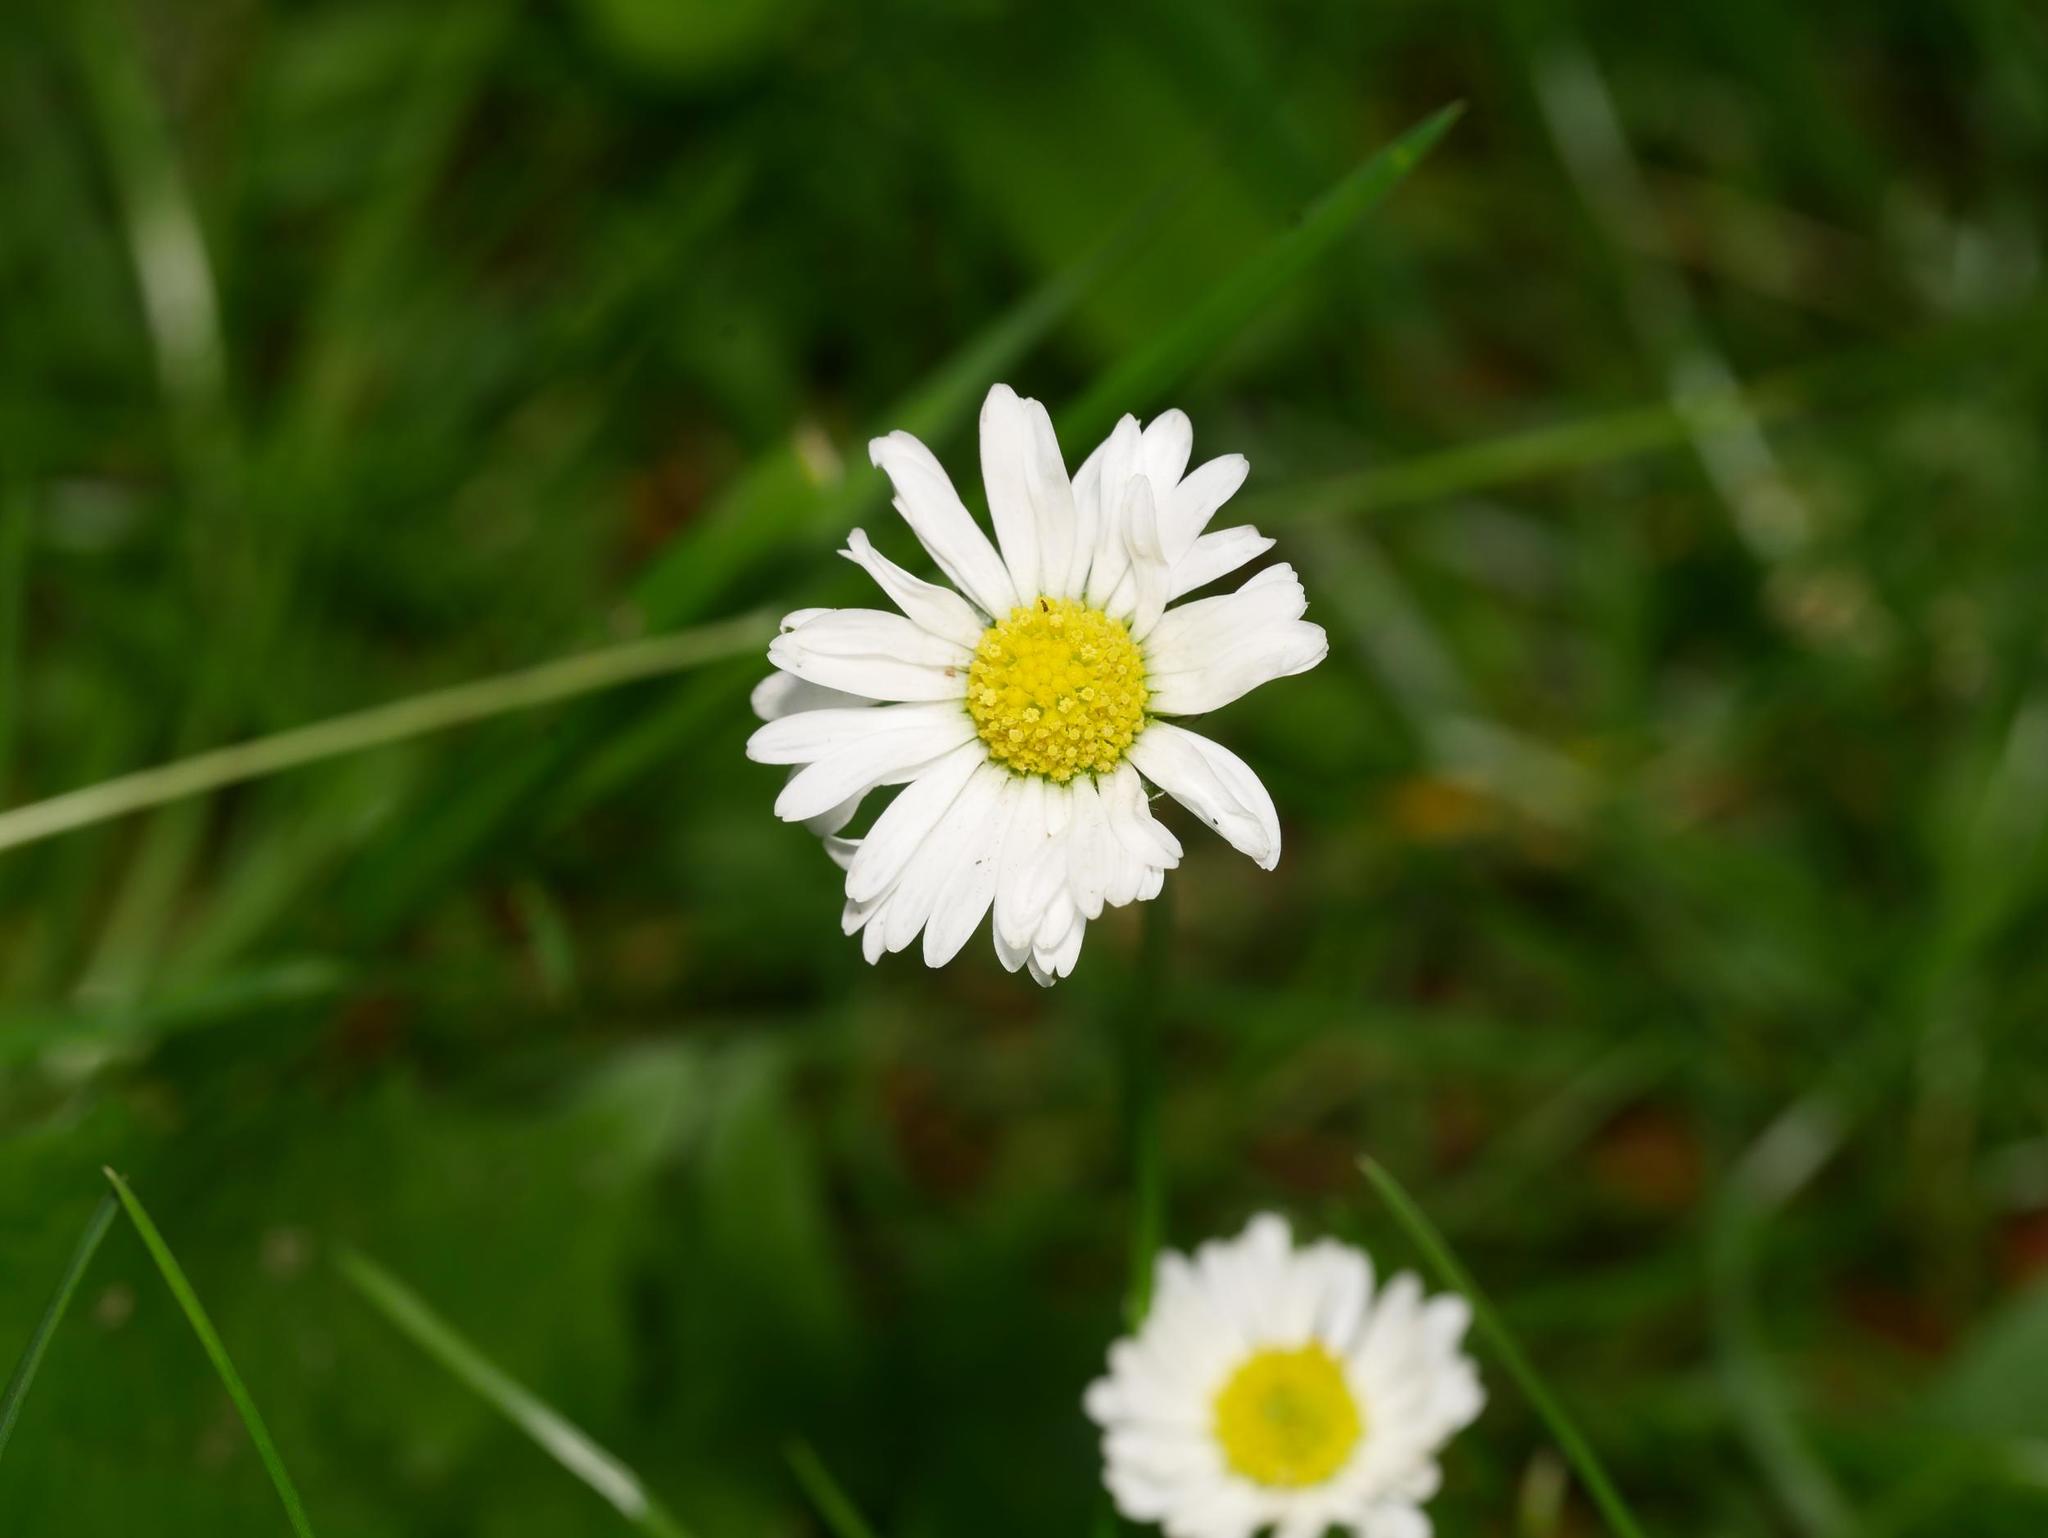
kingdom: Plantae
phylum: Tracheophyta
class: Magnoliopsida
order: Asterales
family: Asteraceae
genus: Bellis
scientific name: Bellis perennis
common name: Lawndaisy
